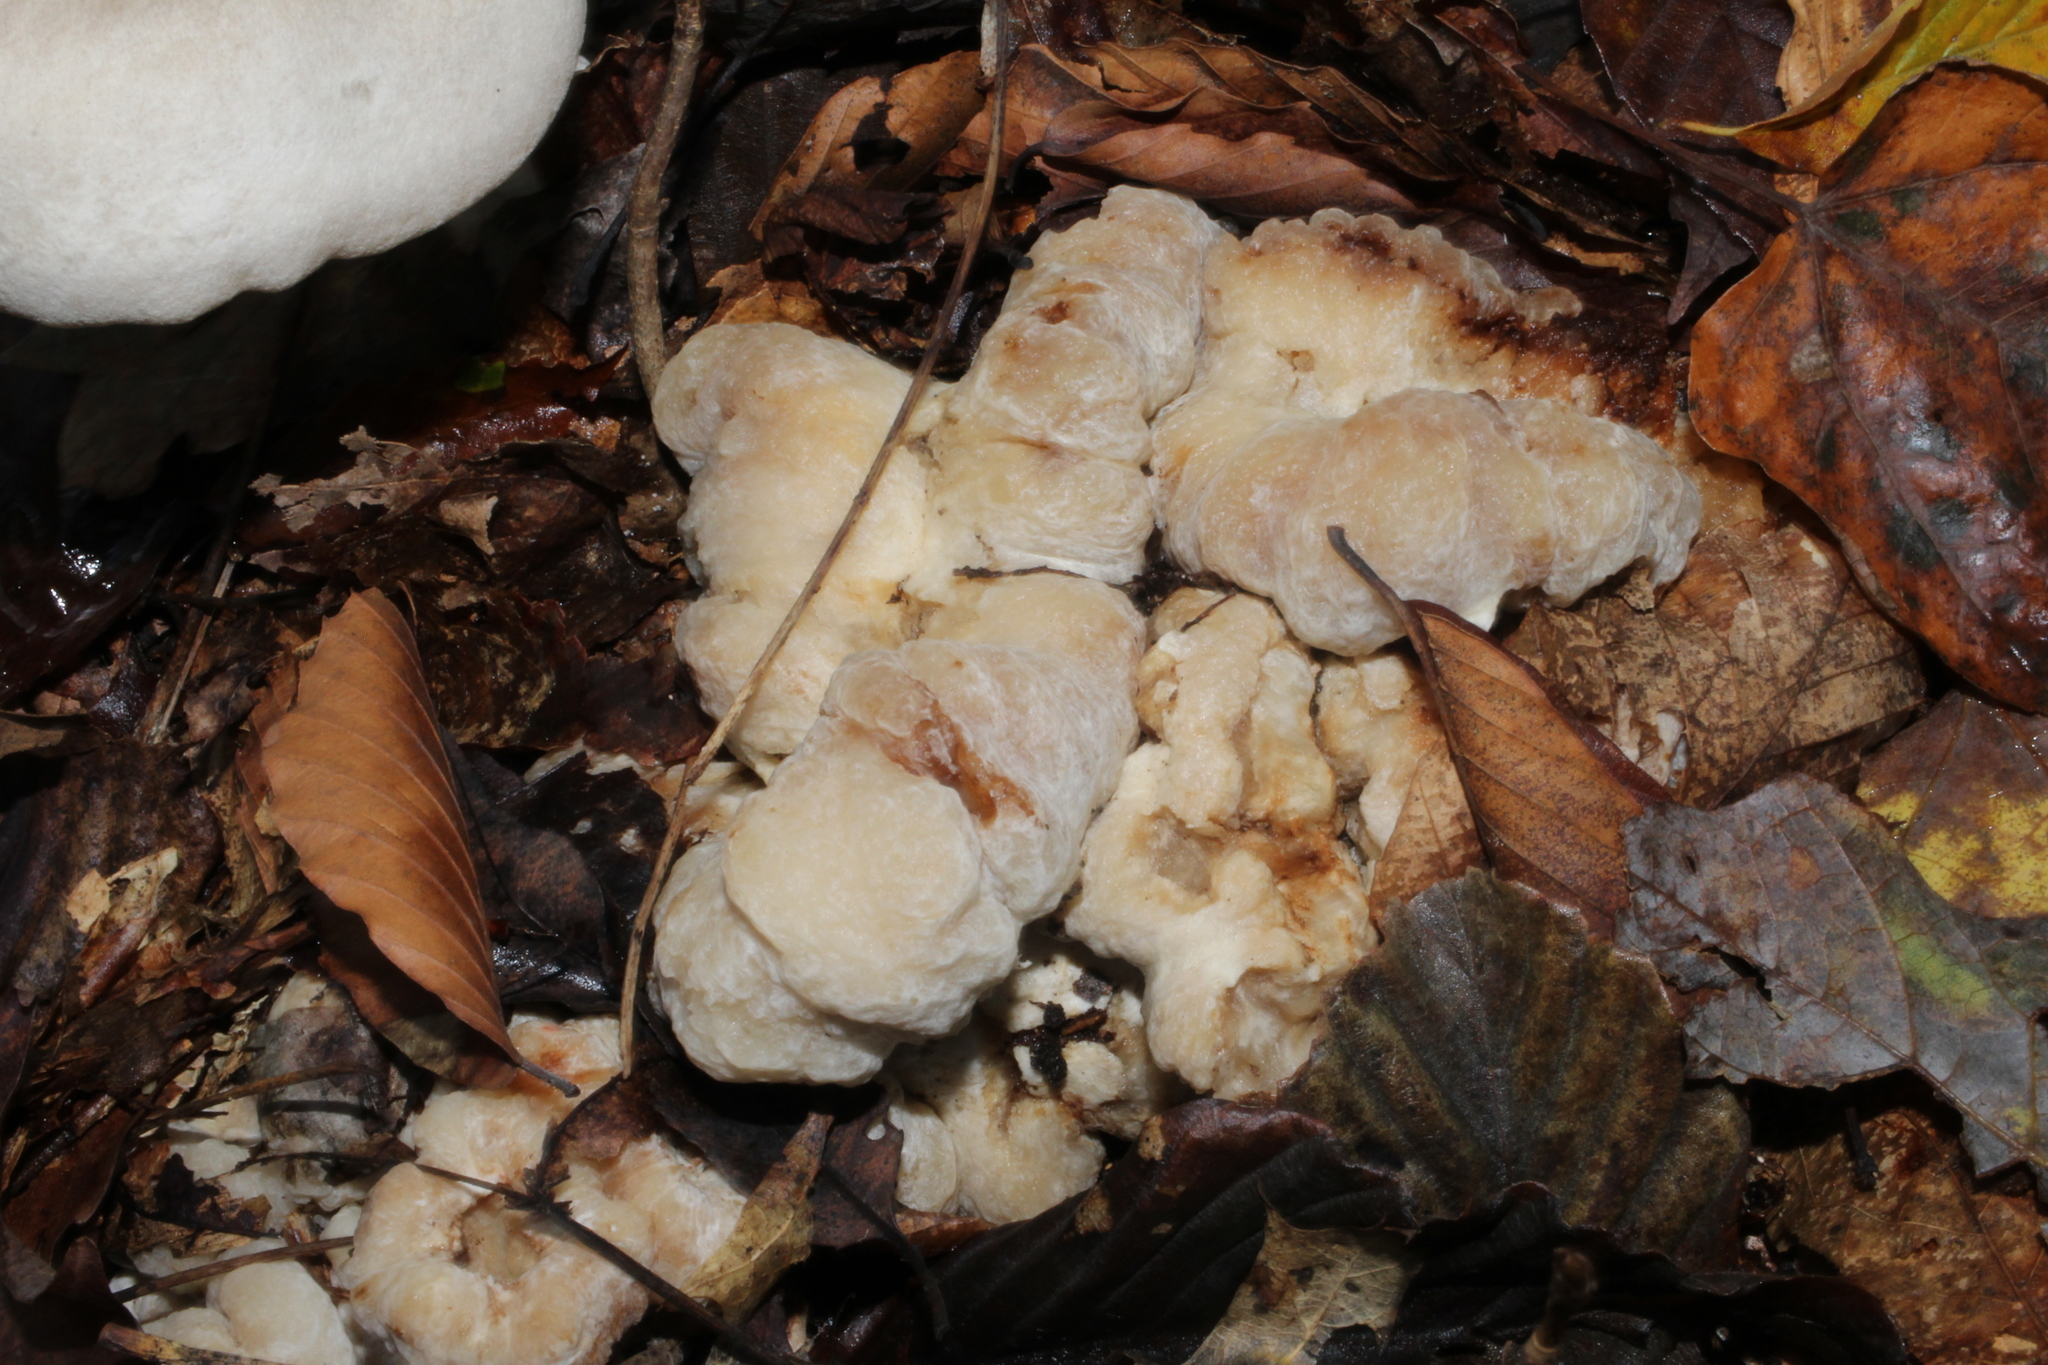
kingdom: Fungi
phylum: Basidiomycota
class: Agaricomycetes
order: Agaricales
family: Entolomataceae
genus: Entoloma
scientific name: Entoloma abortivum
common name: Aborted entoloma
